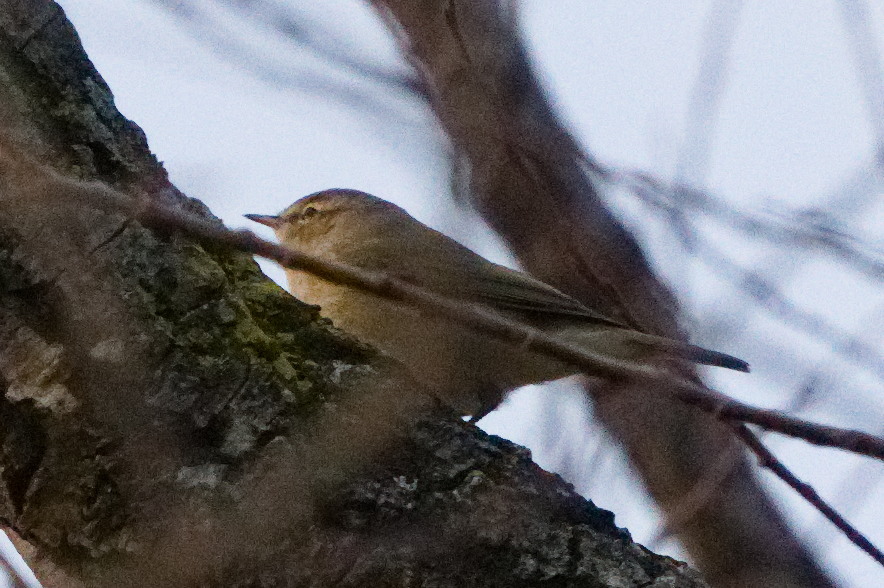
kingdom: Animalia
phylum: Chordata
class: Aves
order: Passeriformes
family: Phylloscopidae
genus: Phylloscopus
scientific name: Phylloscopus collybita
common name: Common chiffchaff
